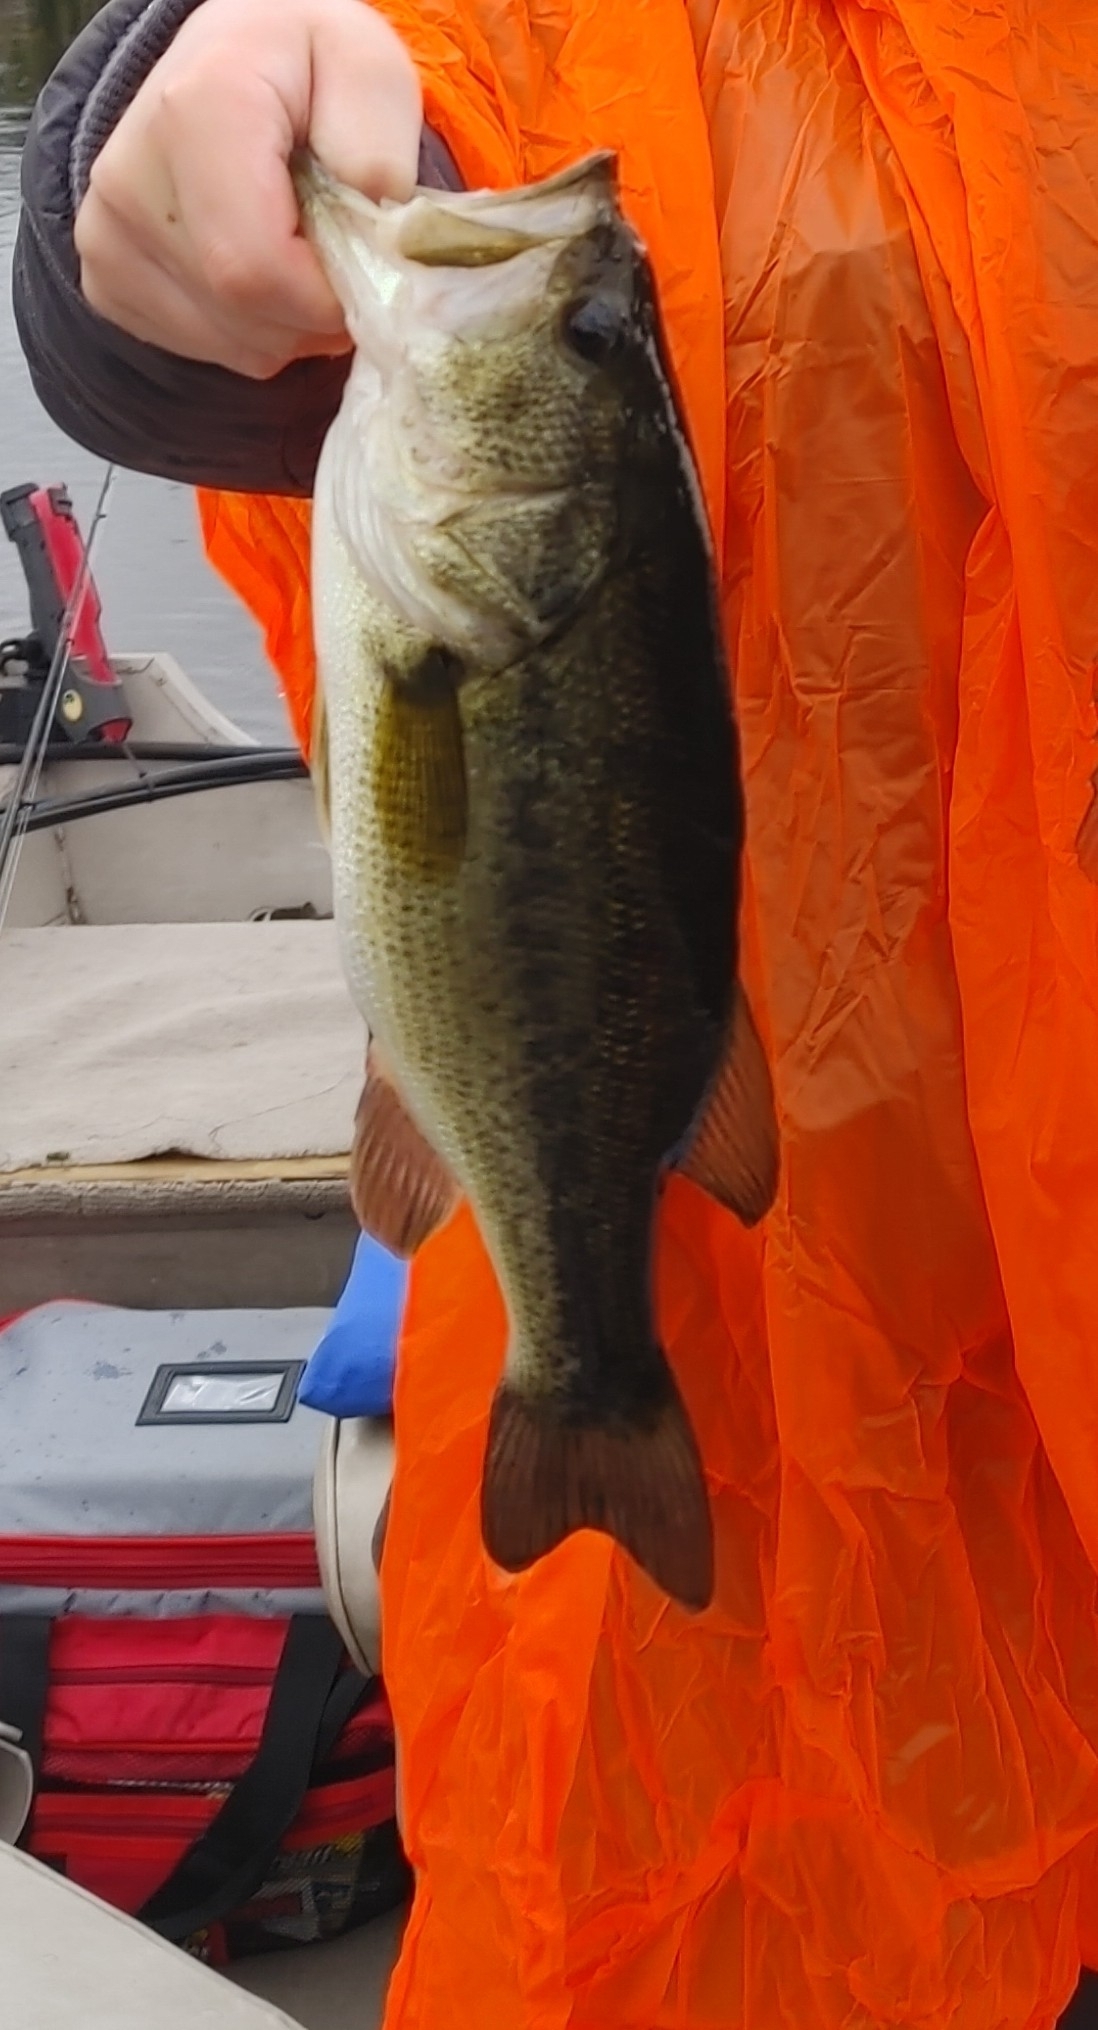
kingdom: Animalia
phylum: Chordata
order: Perciformes
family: Centrarchidae
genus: Micropterus
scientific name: Micropterus
